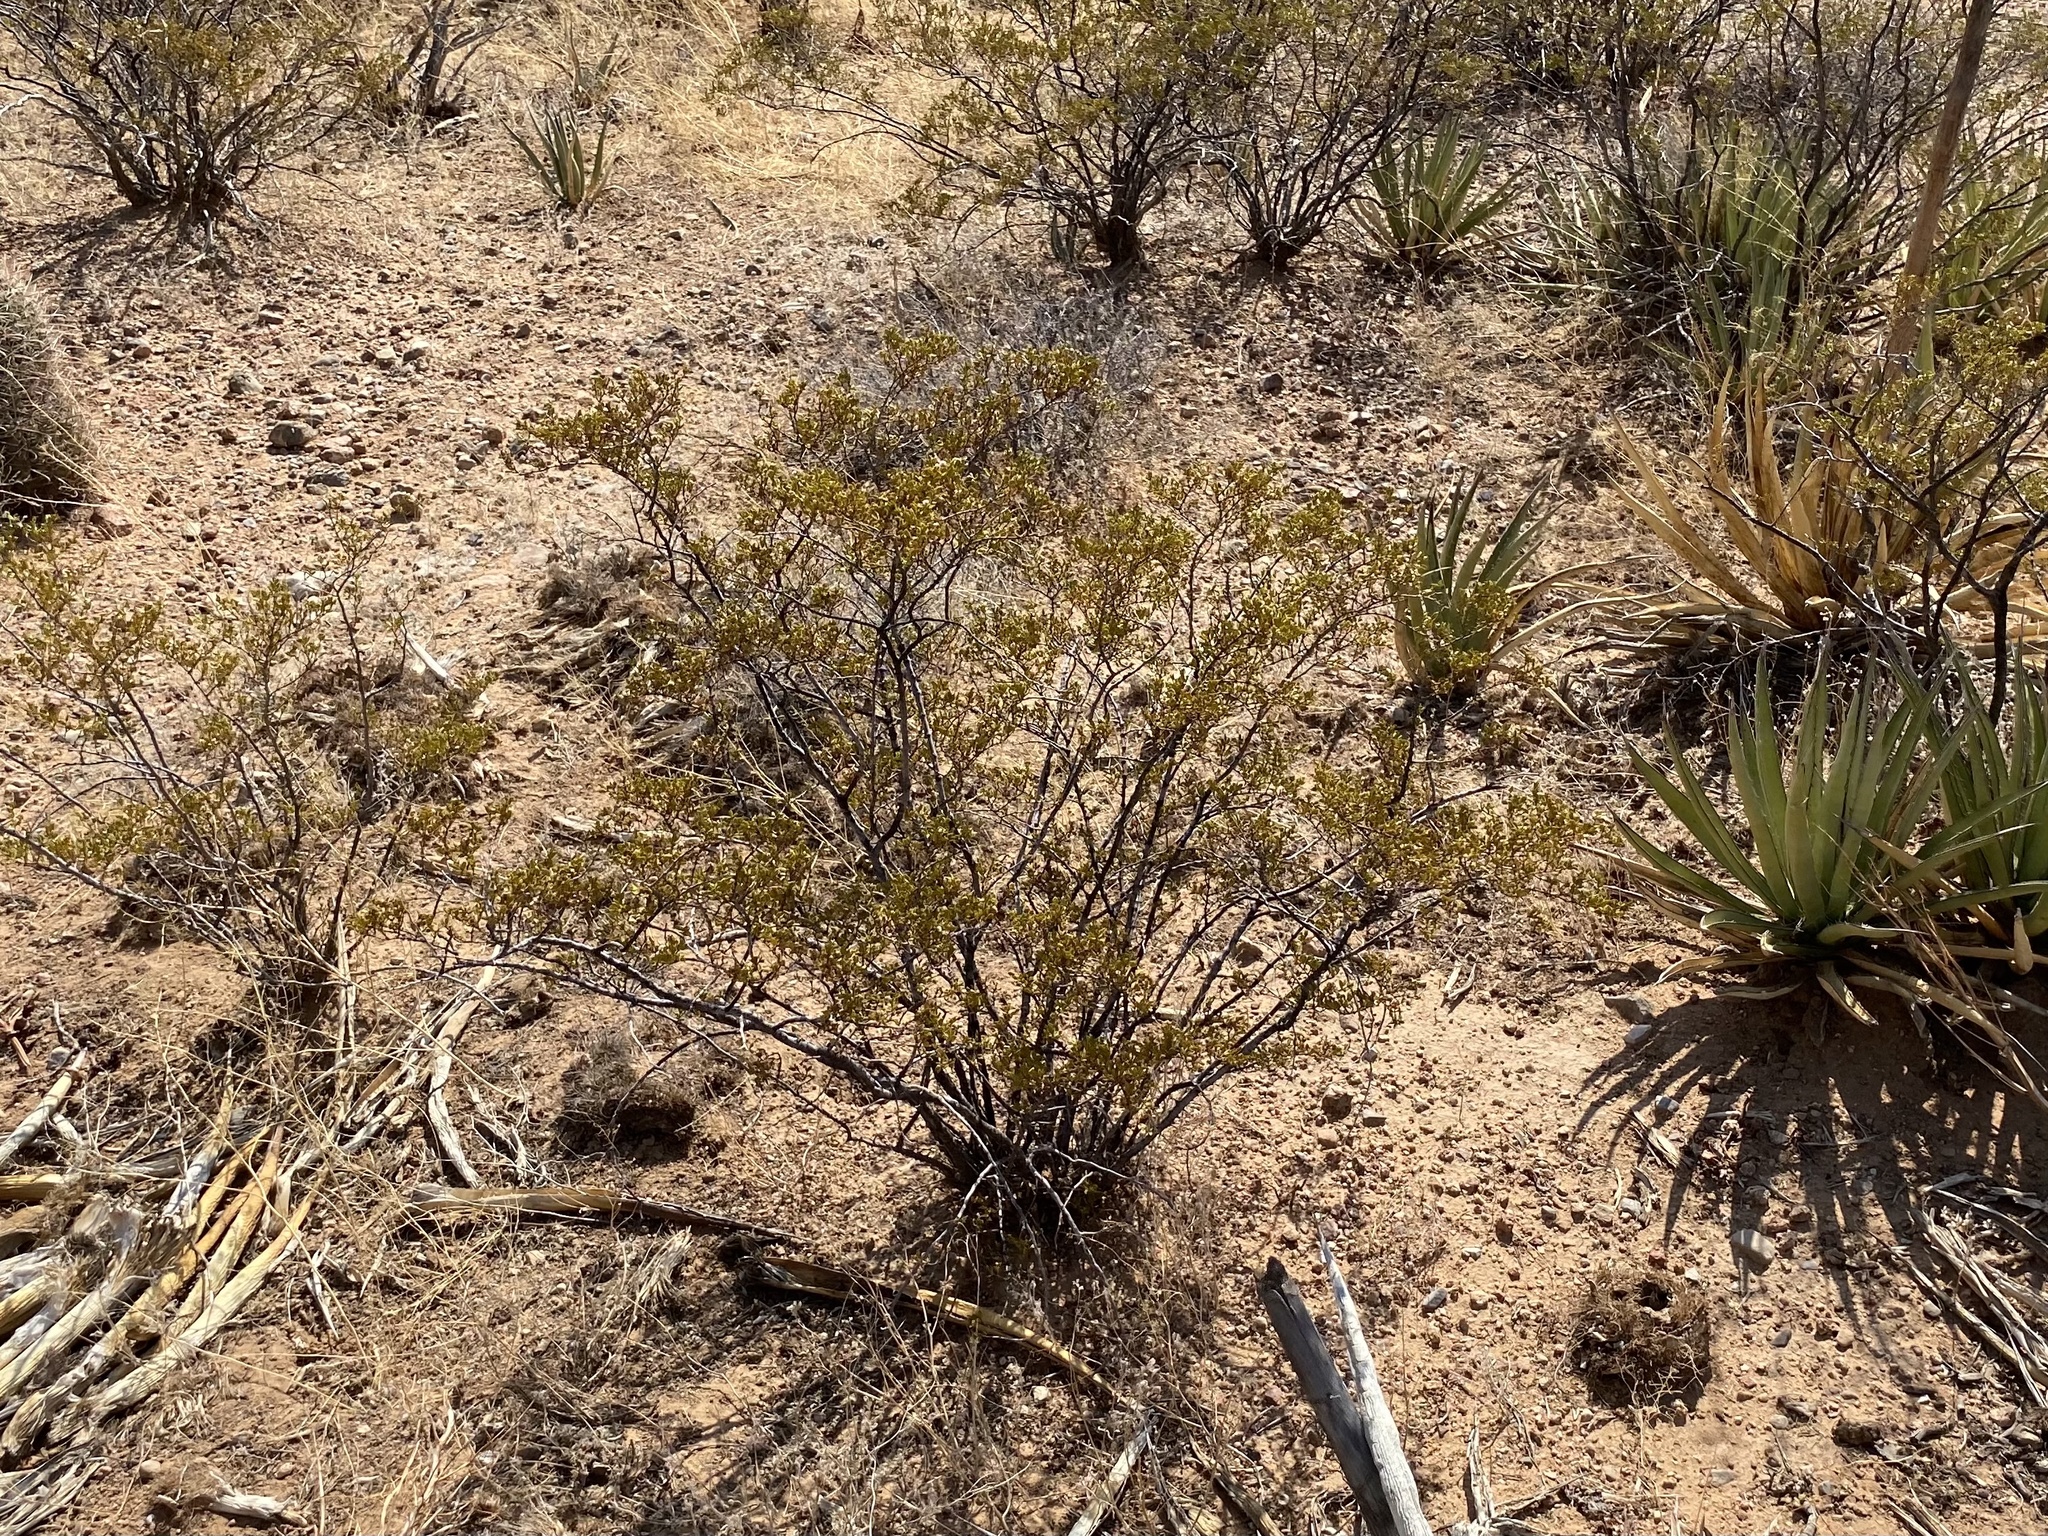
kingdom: Plantae
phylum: Tracheophyta
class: Magnoliopsida
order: Zygophyllales
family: Zygophyllaceae
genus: Larrea
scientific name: Larrea tridentata
